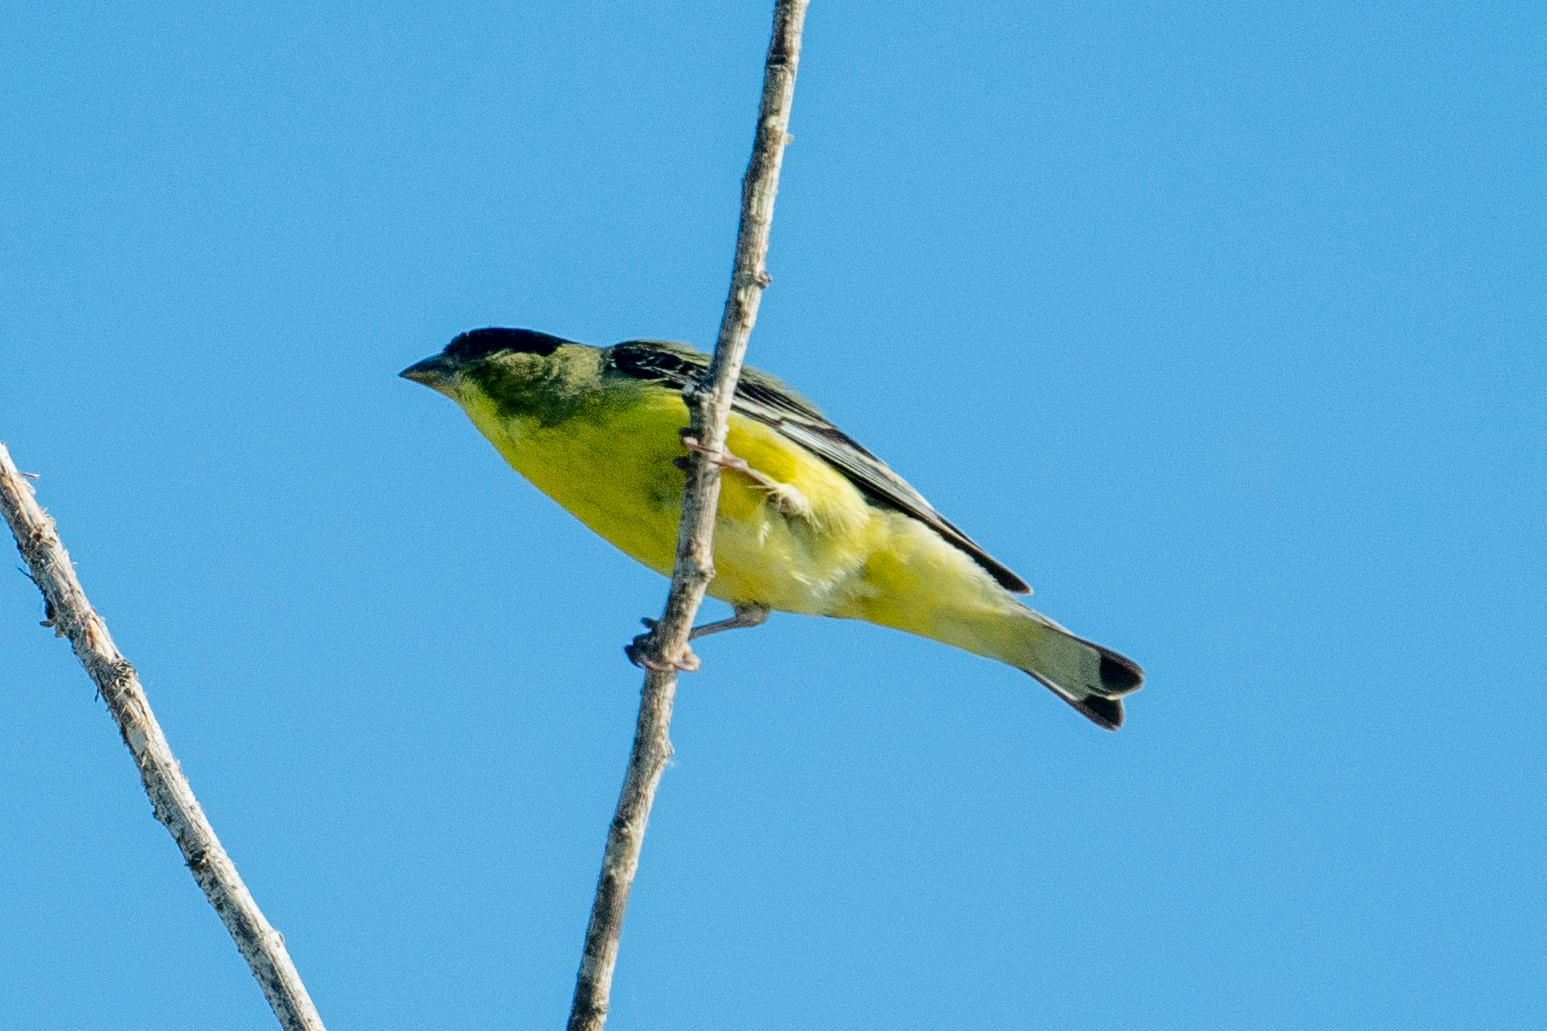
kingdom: Animalia
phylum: Chordata
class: Aves
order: Passeriformes
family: Fringillidae
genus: Spinus
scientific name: Spinus psaltria
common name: Lesser goldfinch
